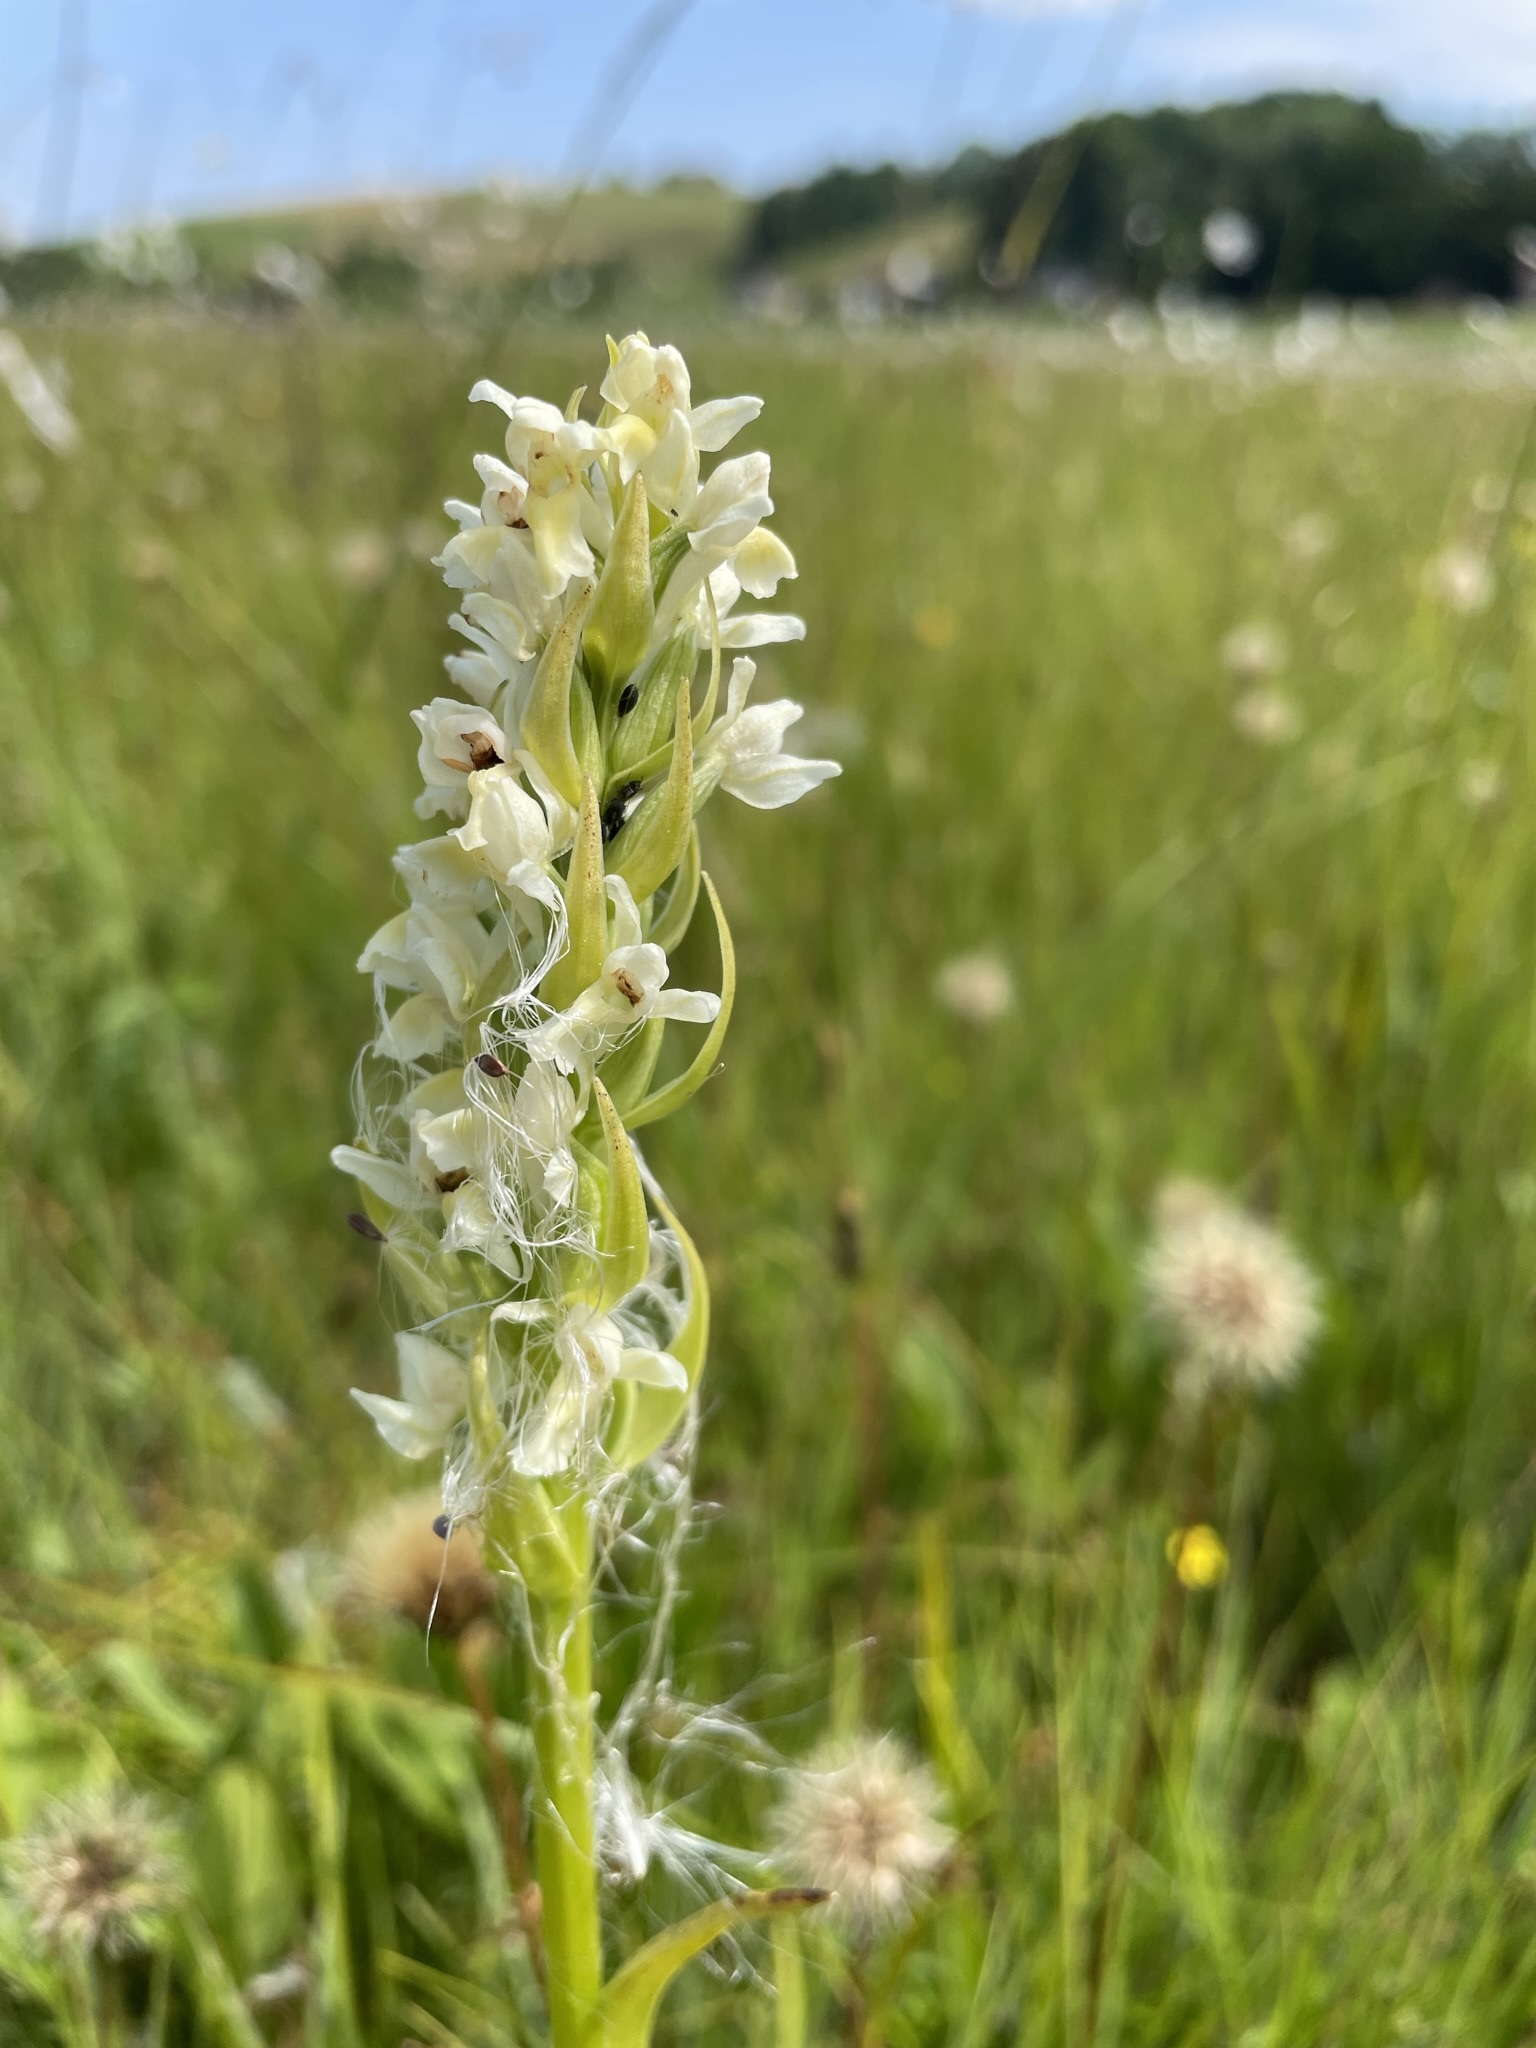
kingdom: Plantae
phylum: Tracheophyta
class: Liliopsida
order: Asparagales
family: Orchidaceae
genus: Dactylorhiza
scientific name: Dactylorhiza incarnata
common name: Early marsh-orchid
